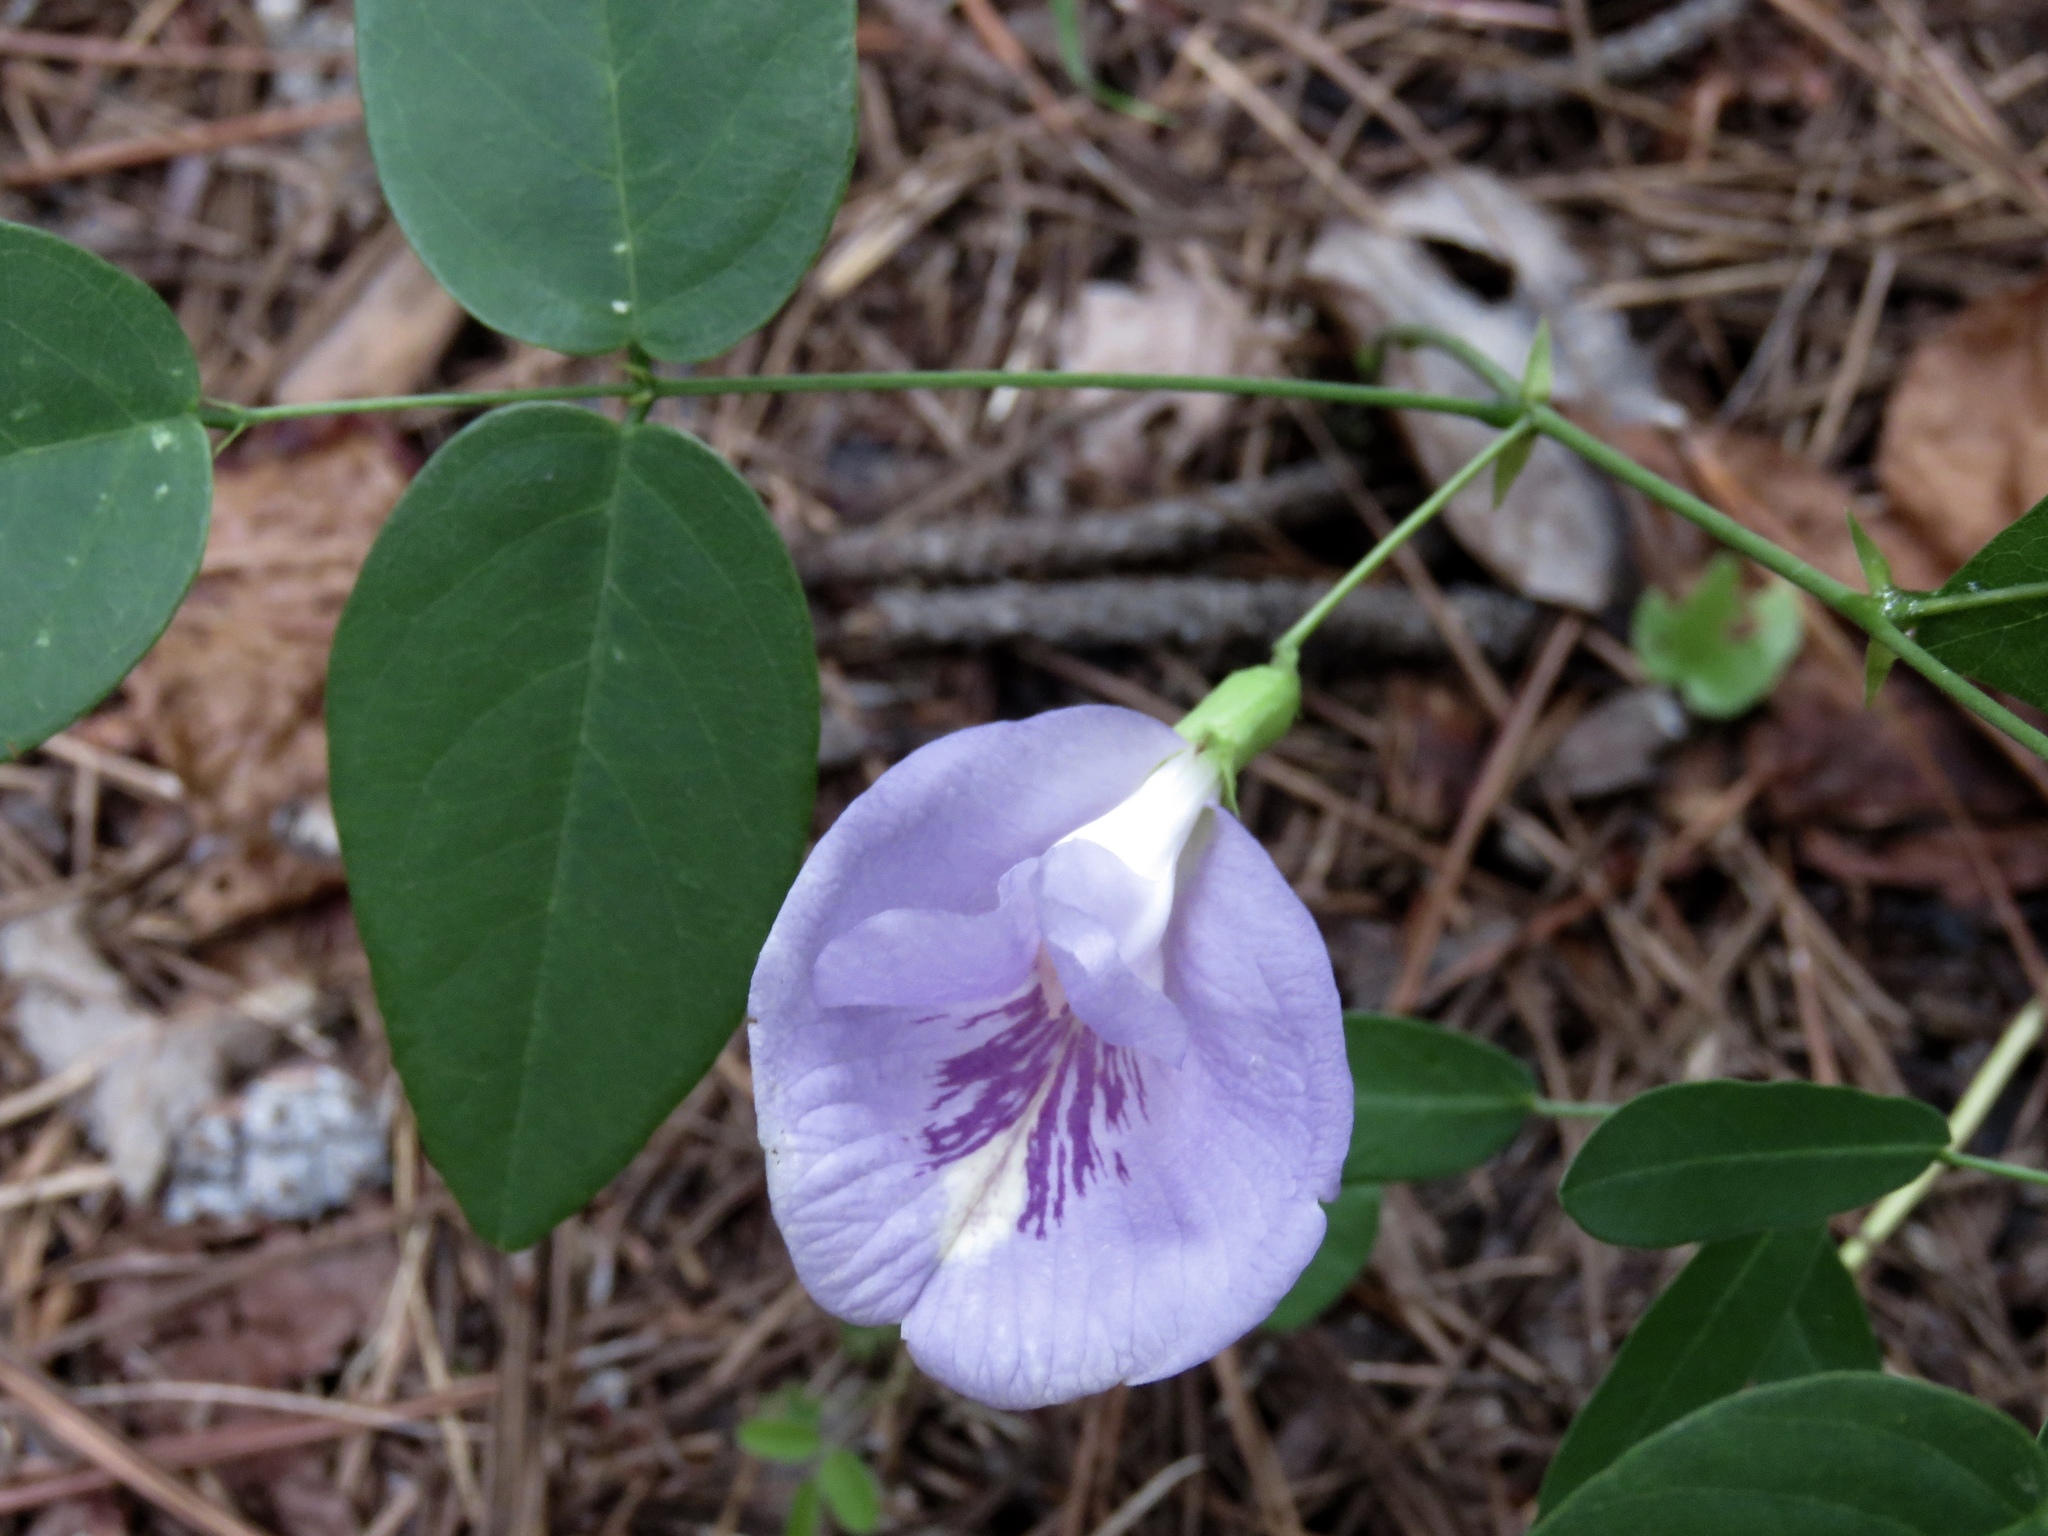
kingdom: Plantae
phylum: Tracheophyta
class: Magnoliopsida
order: Fabales
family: Fabaceae
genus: Clitoria
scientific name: Clitoria mariana
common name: Butterfly-pea
